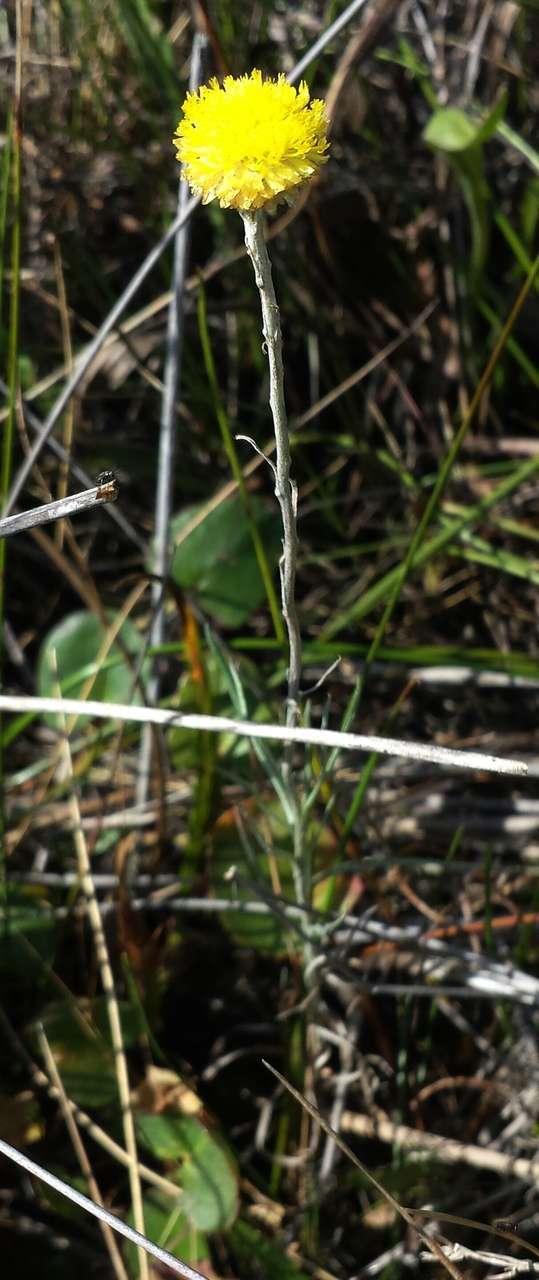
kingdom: Plantae
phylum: Tracheophyta
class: Magnoliopsida
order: Asterales
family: Asteraceae
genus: Coronidium
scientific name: Coronidium gunnianum
